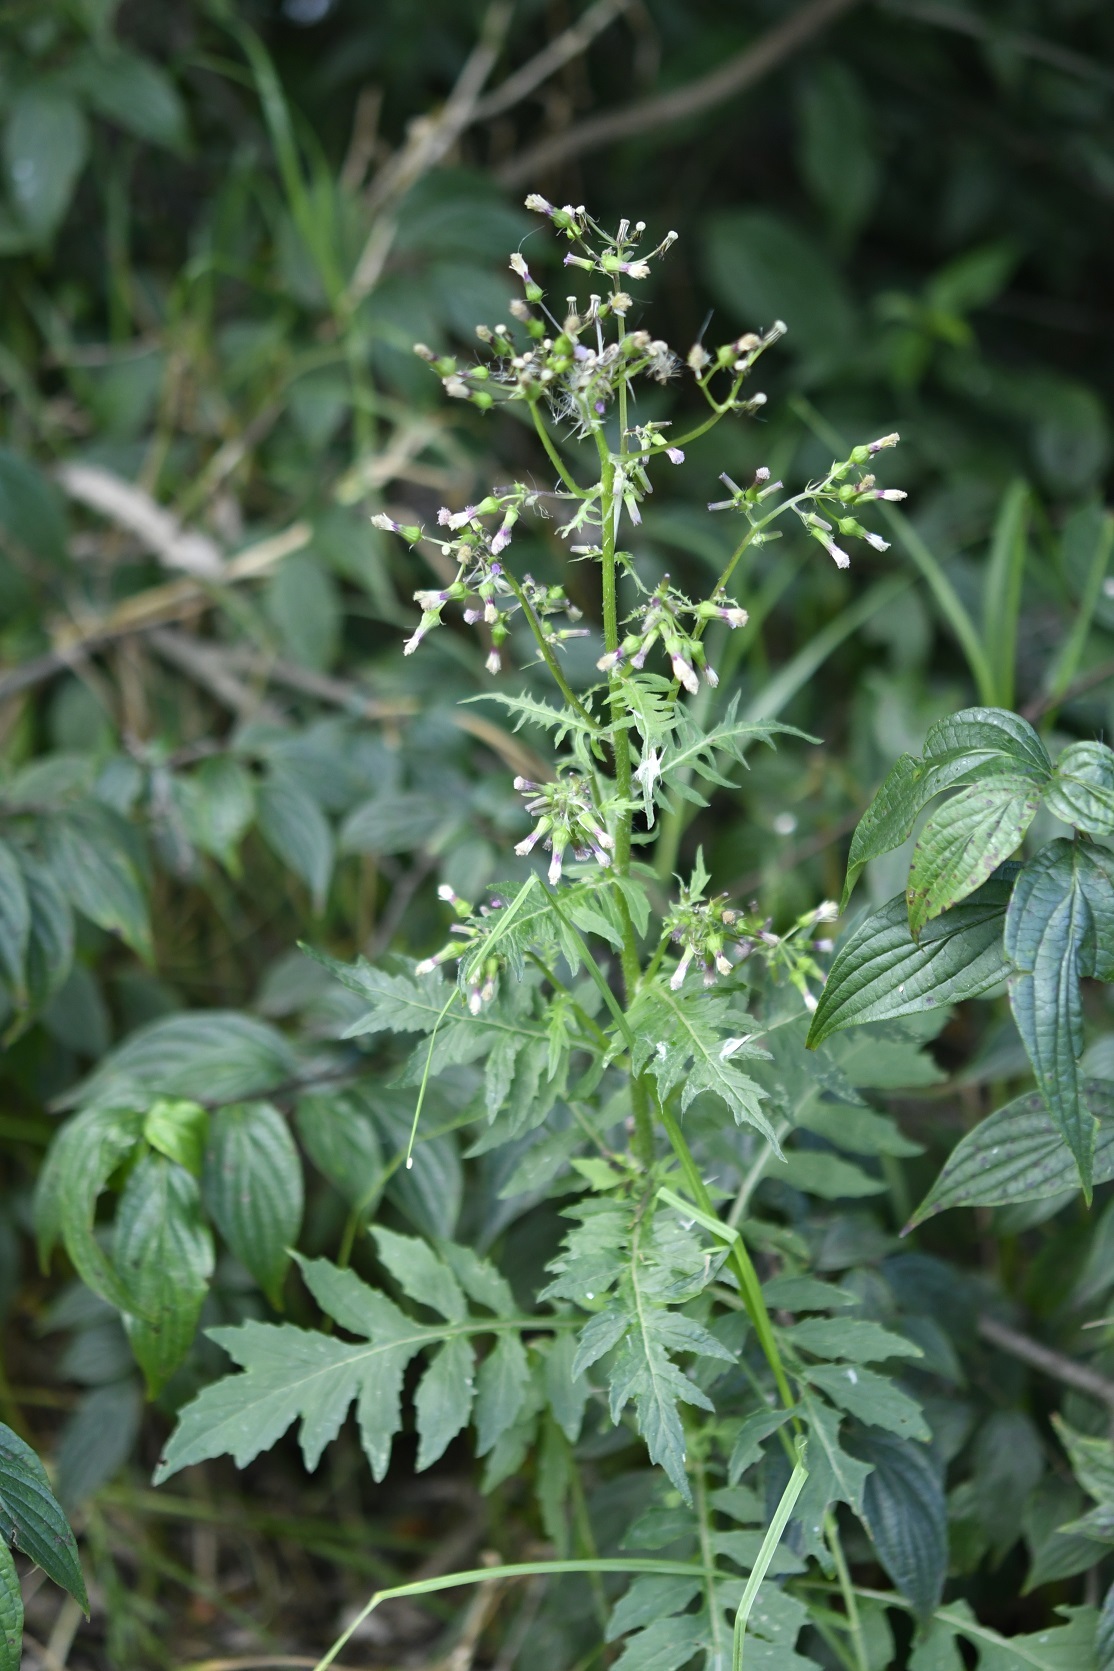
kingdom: Plantae
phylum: Tracheophyta
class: Magnoliopsida
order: Asterales
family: Asteraceae
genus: Erechtites
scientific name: Erechtites valerianifolius
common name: Tropical burnweed
